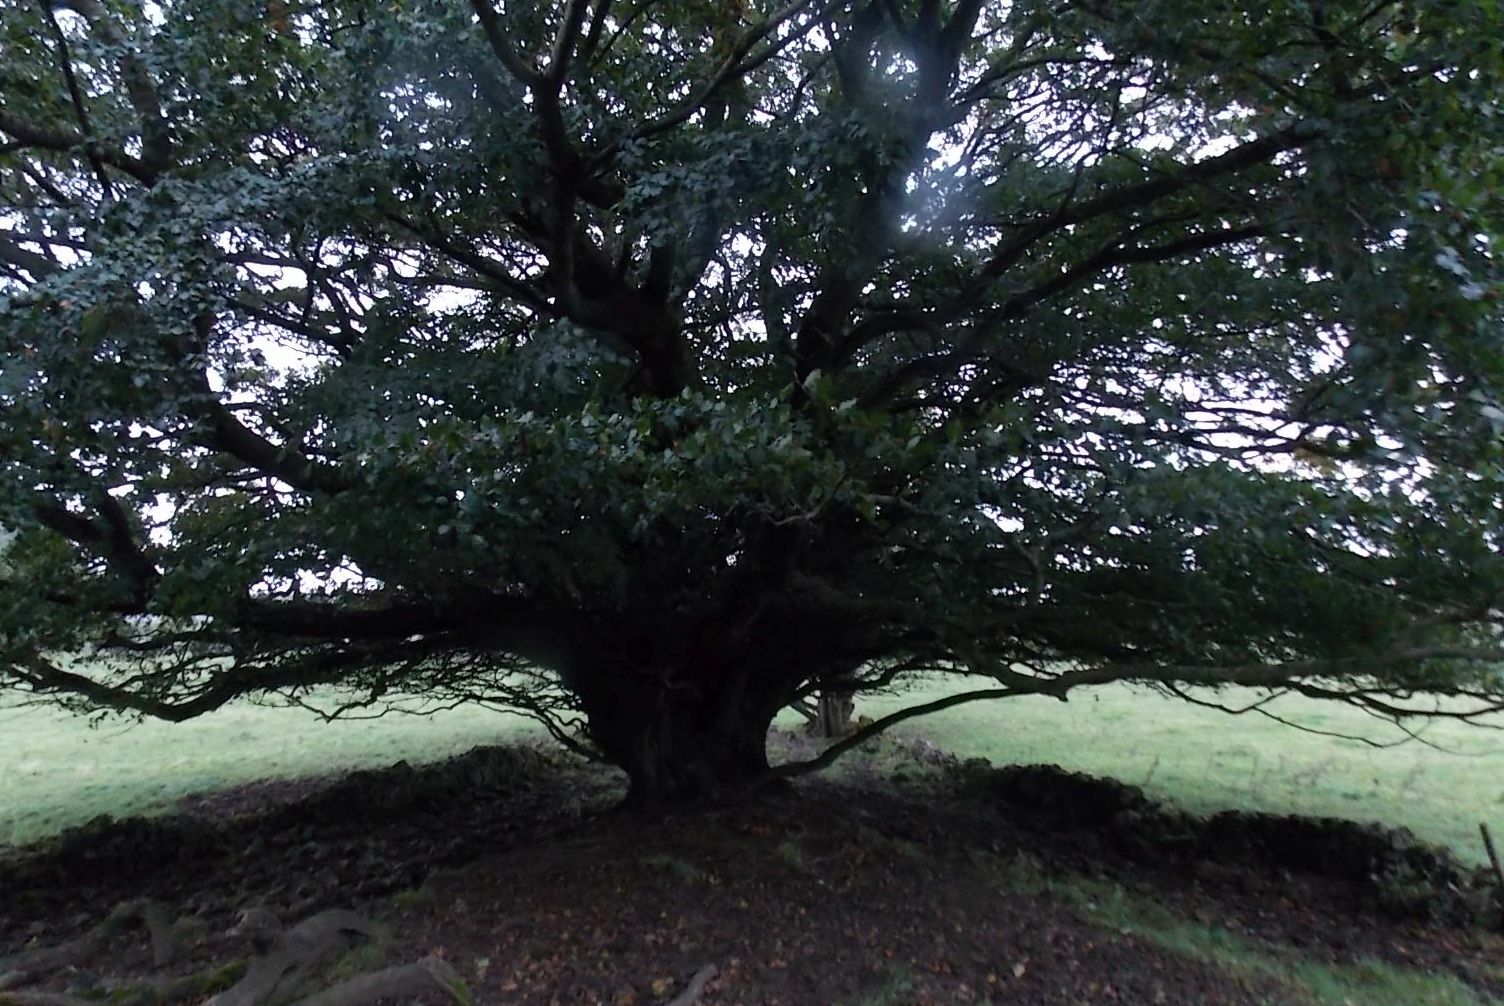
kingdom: Plantae
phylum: Tracheophyta
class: Magnoliopsida
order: Fagales
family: Fagaceae
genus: Fagus
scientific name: Fagus sylvatica
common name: Beech
